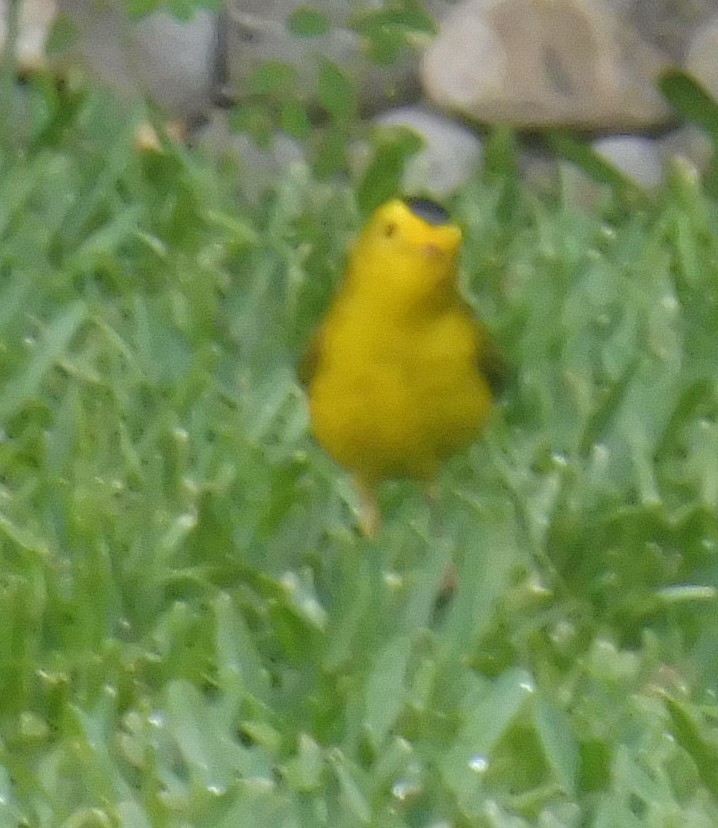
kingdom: Animalia
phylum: Chordata
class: Aves
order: Passeriformes
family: Parulidae
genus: Cardellina
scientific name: Cardellina pusilla
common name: Wilson's warbler
